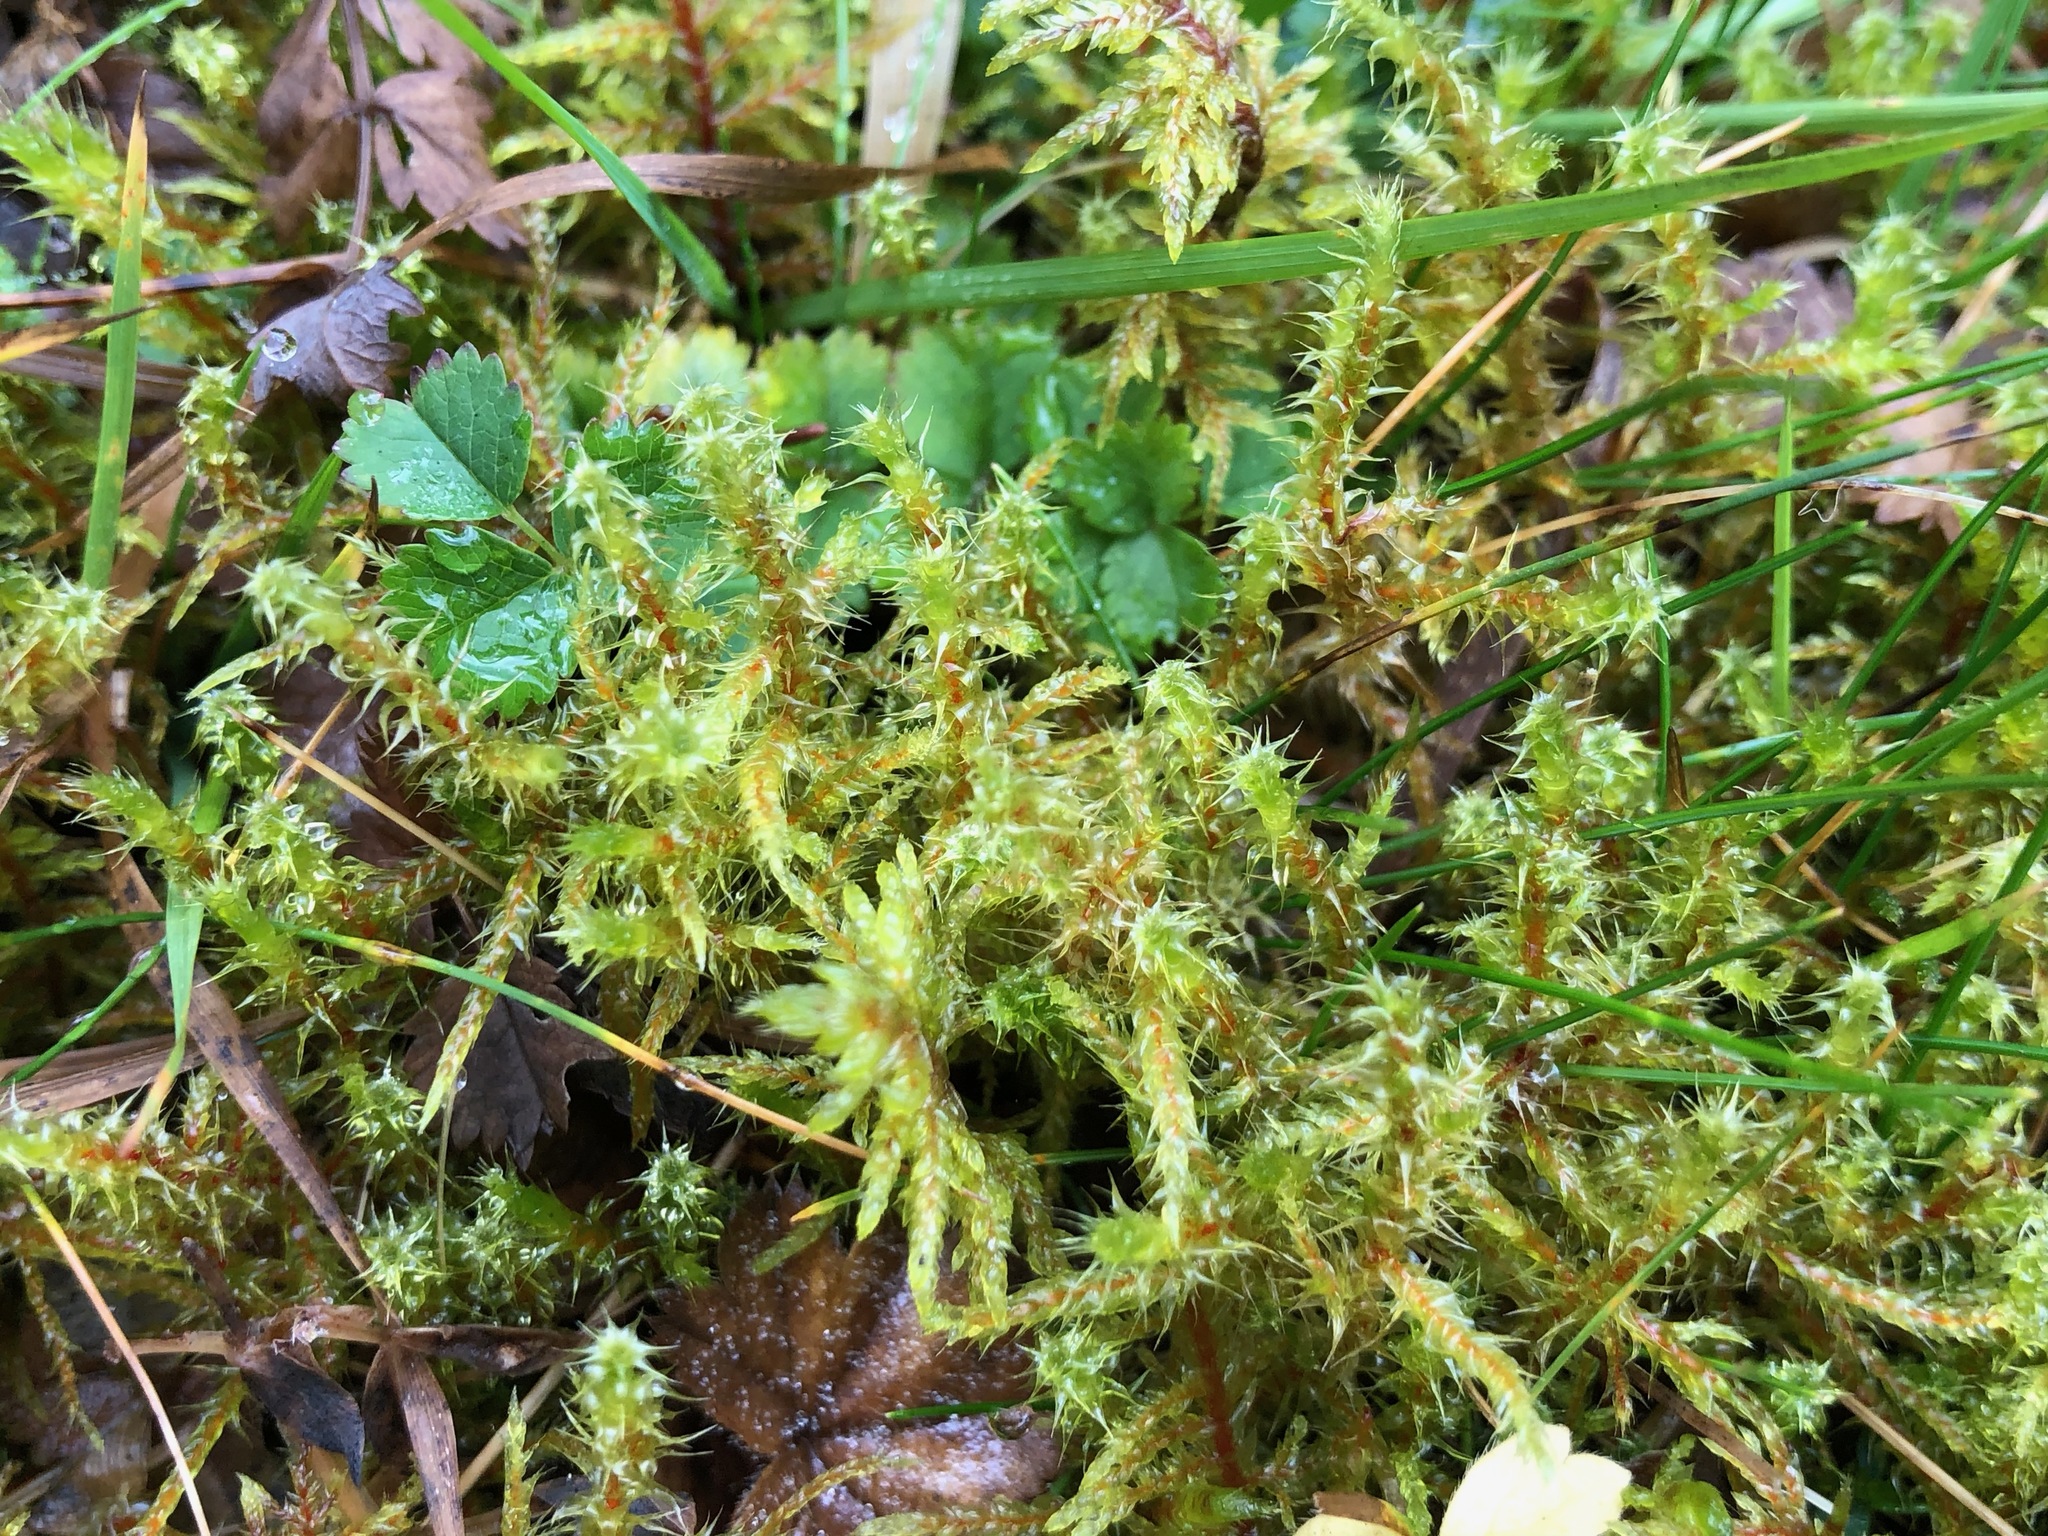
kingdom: Plantae
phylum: Bryophyta
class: Bryopsida
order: Hypnales
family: Hylocomiaceae
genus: Rhytidiadelphus
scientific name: Rhytidiadelphus squarrosus
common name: Springy turf-moss
